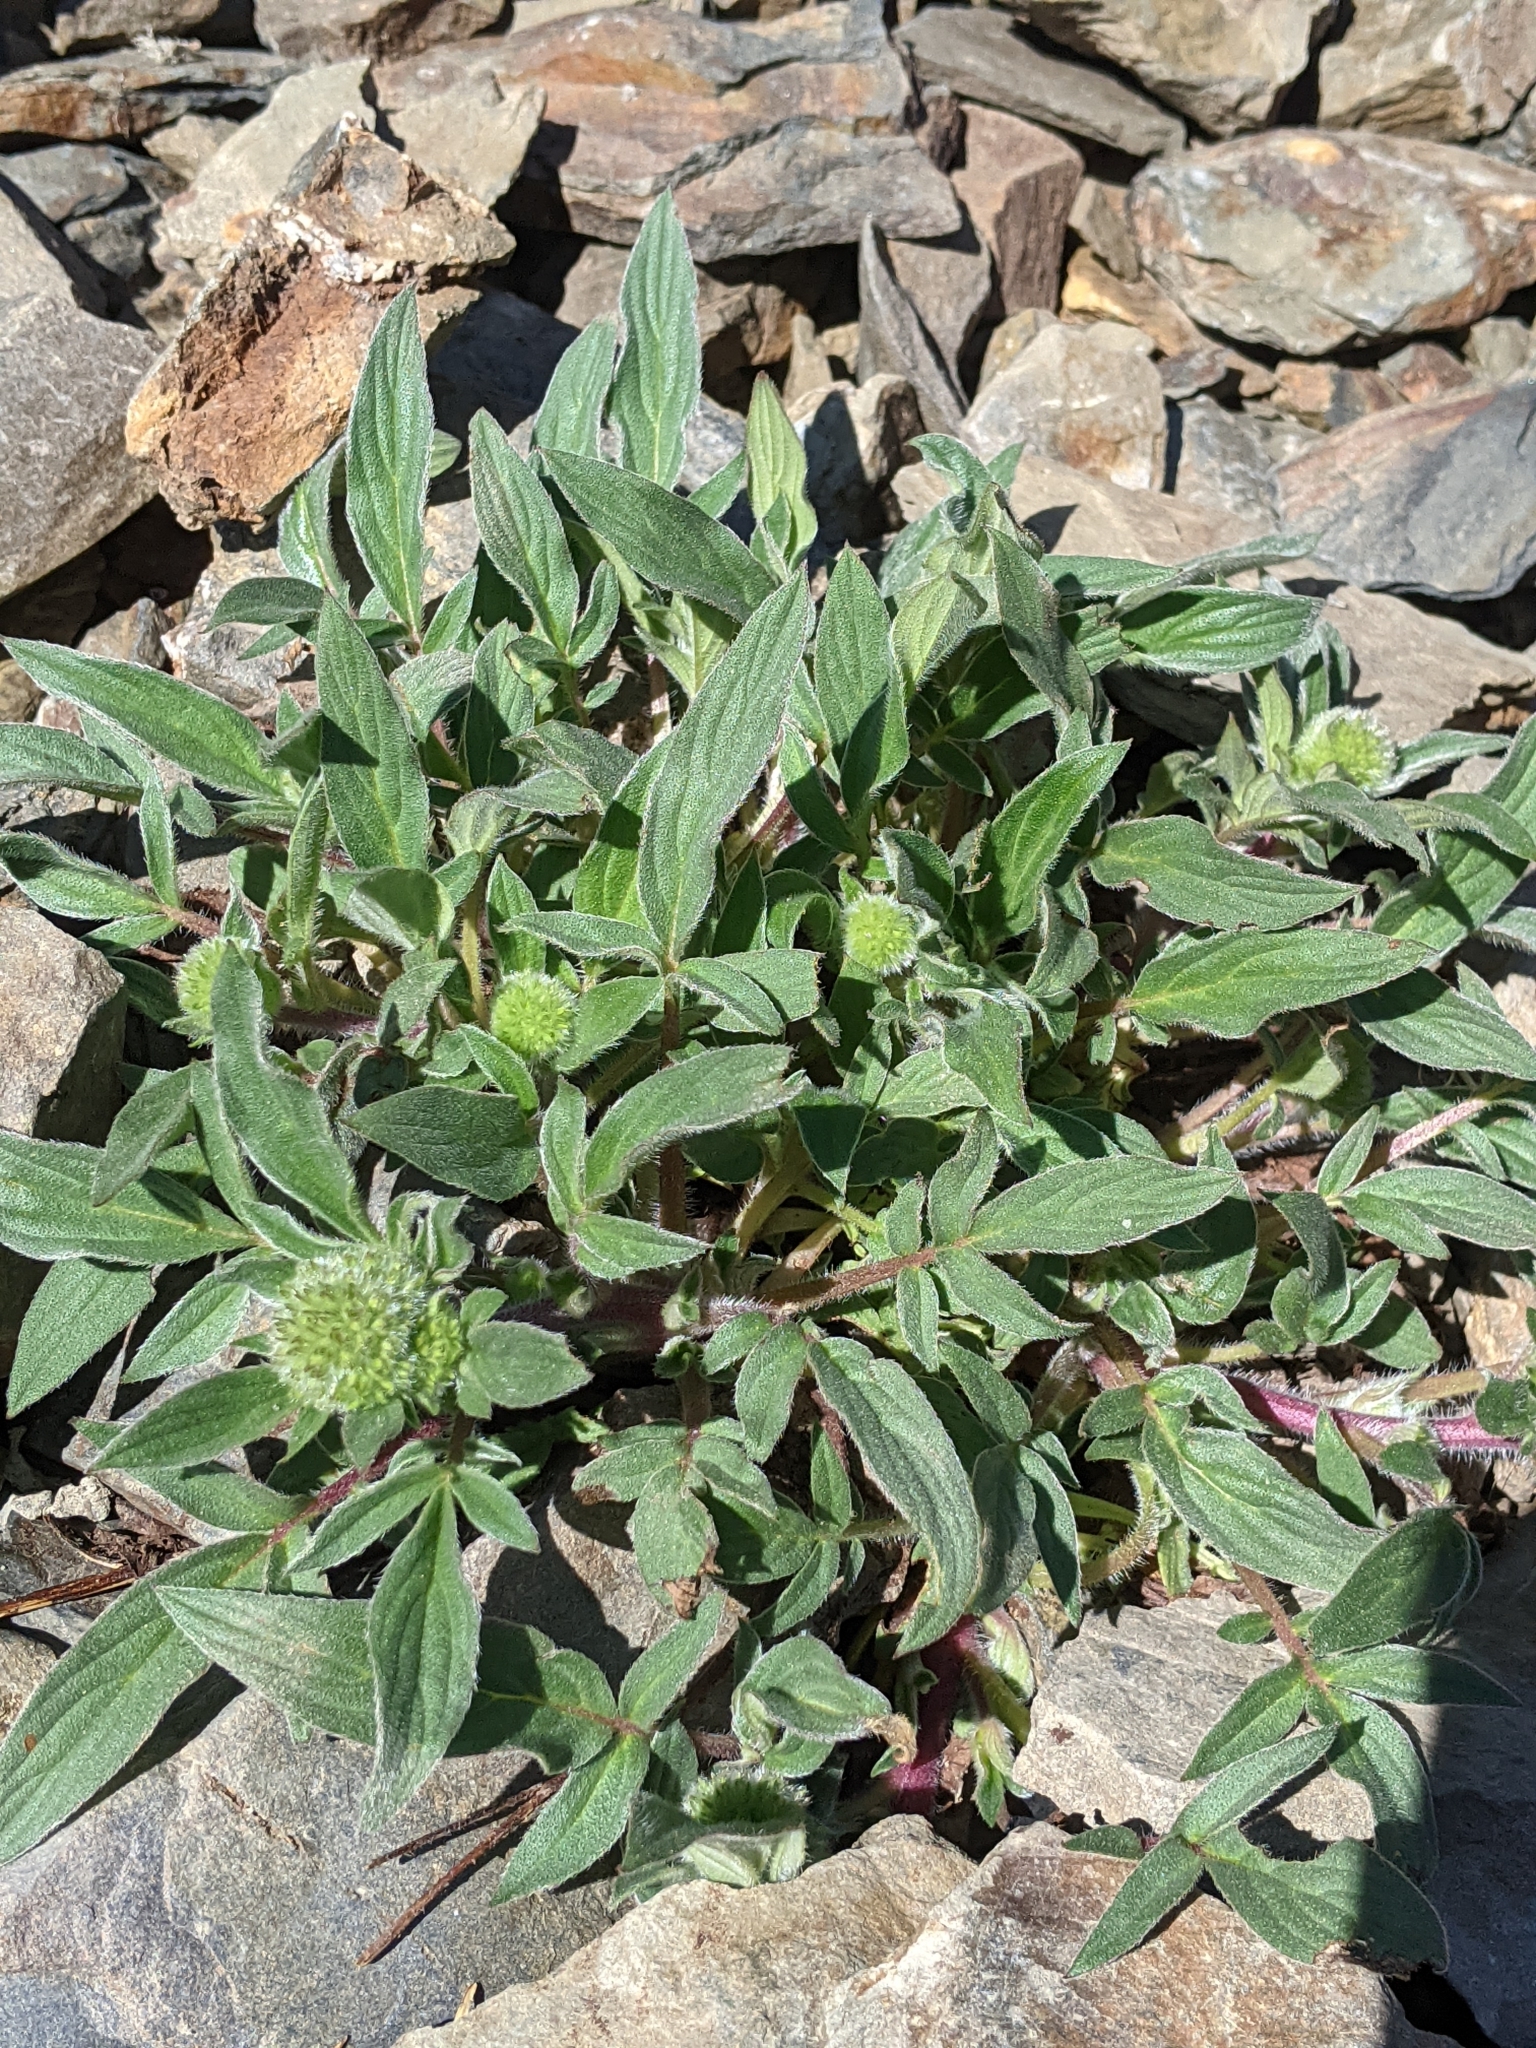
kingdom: Plantae
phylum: Tracheophyta
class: Magnoliopsida
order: Boraginales
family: Hydrophyllaceae
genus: Phacelia
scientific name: Phacelia hastata
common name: Silver-leaved phacelia
